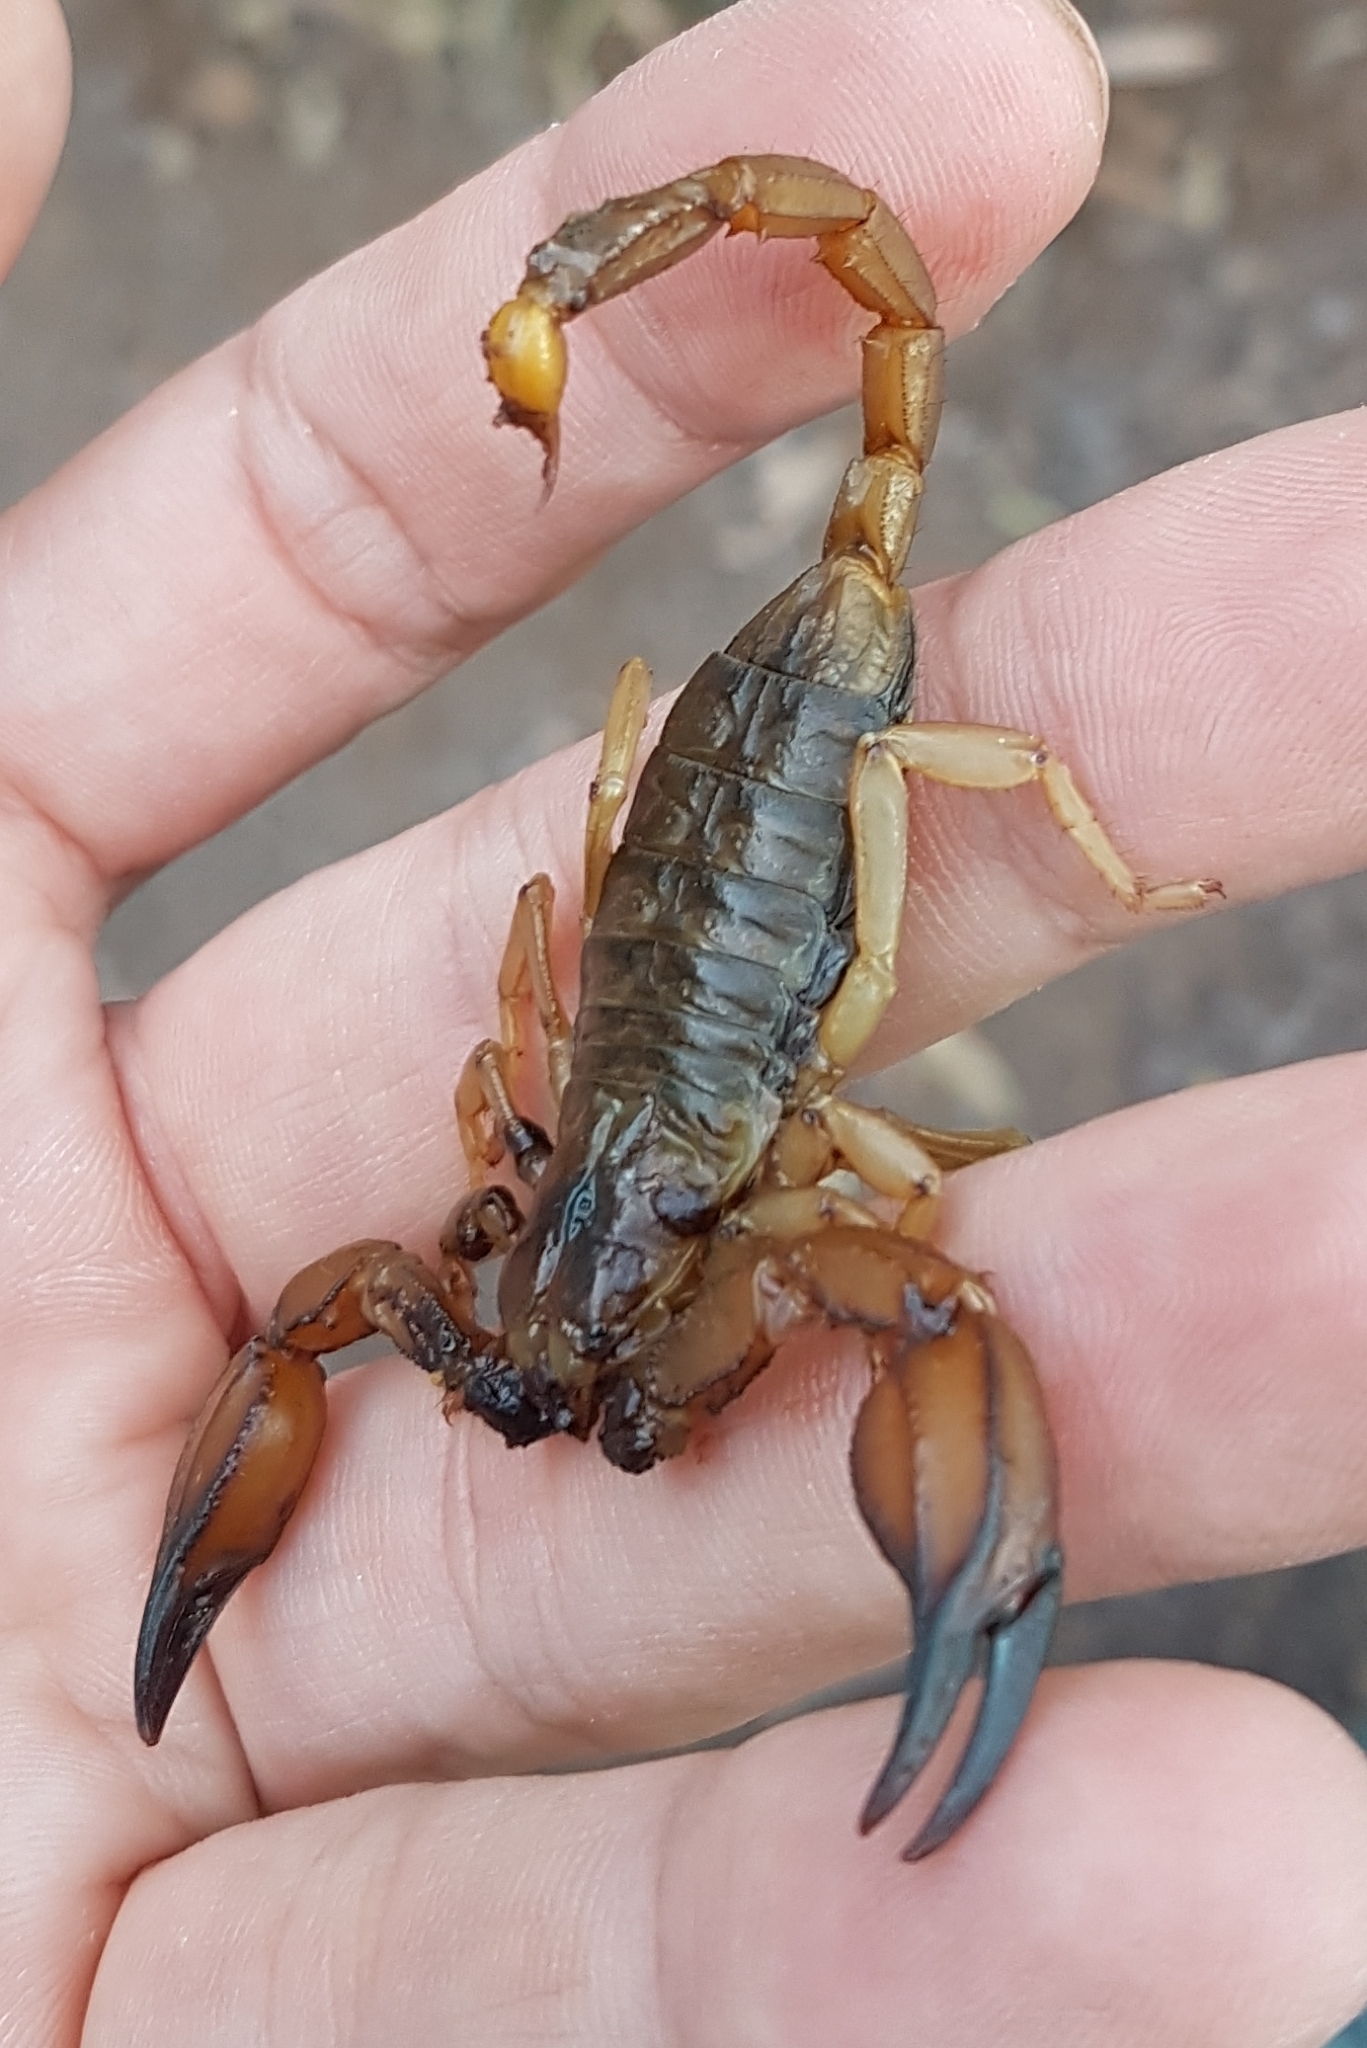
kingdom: Animalia
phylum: Arthropoda
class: Arachnida
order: Scorpiones
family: Scorpionidae
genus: Urodacus
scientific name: Urodacus elongatus
